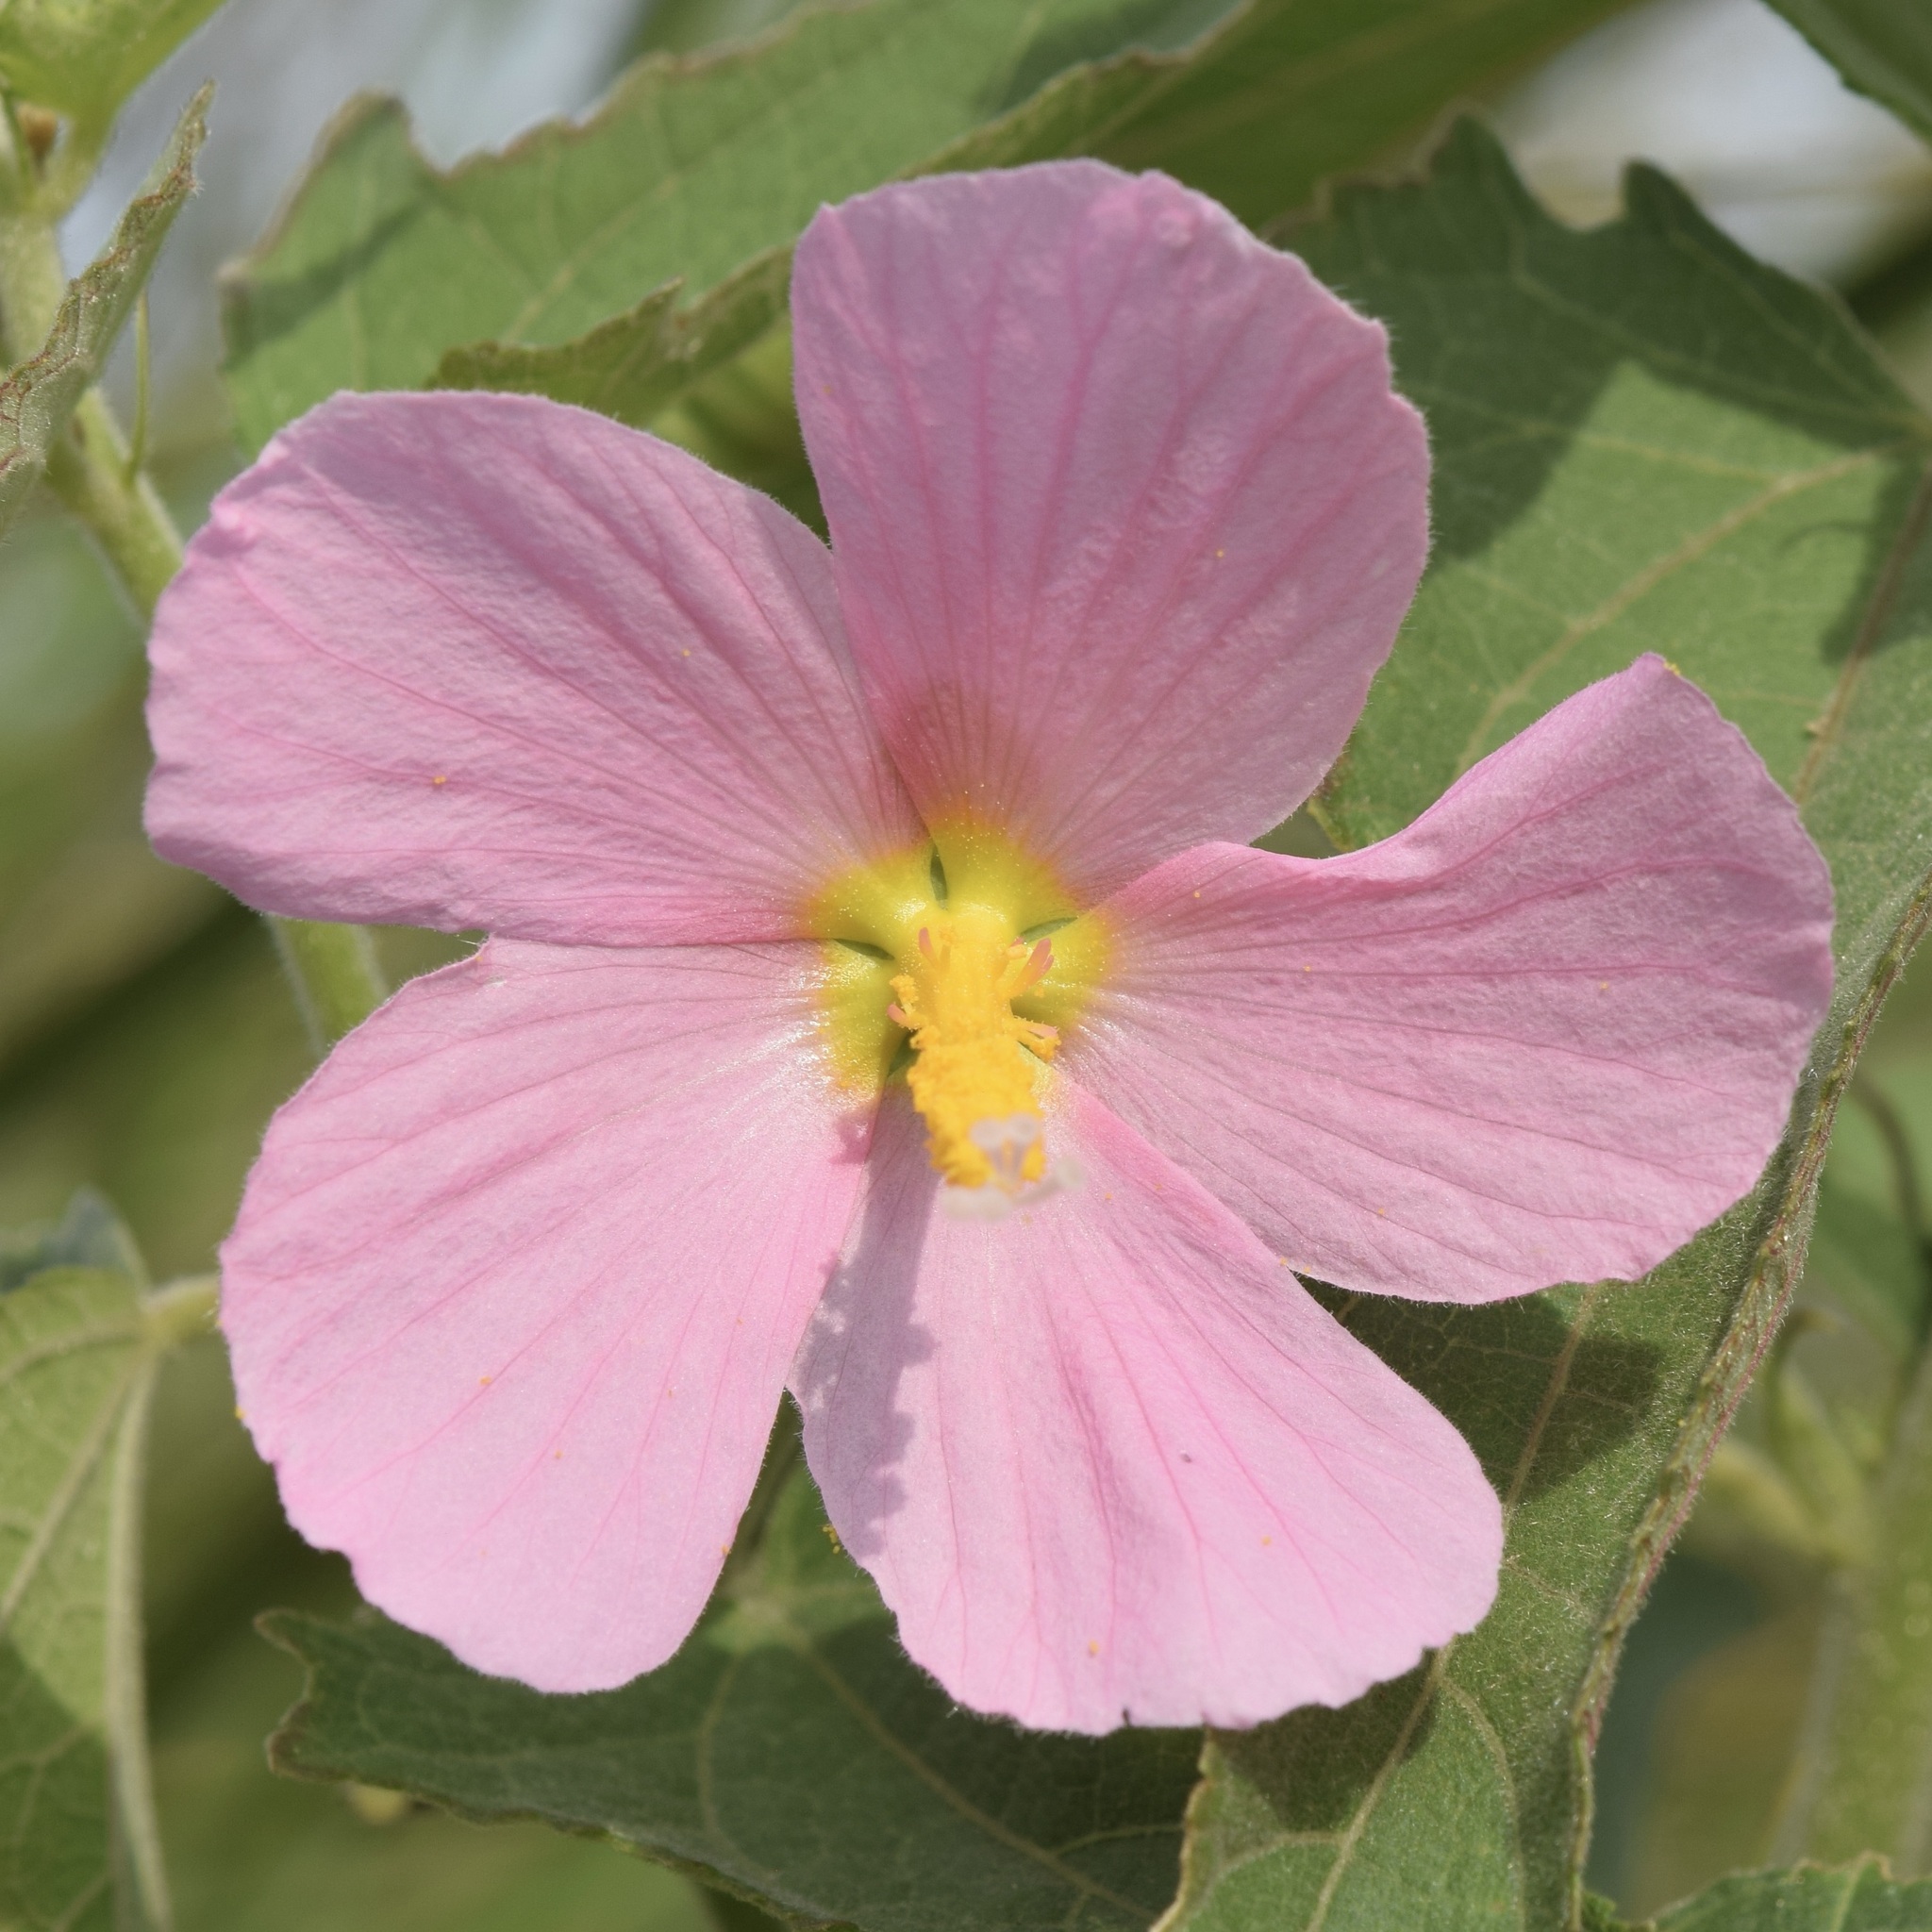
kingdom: Plantae
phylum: Tracheophyta
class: Magnoliopsida
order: Malvales
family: Malvaceae
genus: Kosteletzkya
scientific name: Kosteletzkya pentacarpos
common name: Virginia saltmarsh mallow
